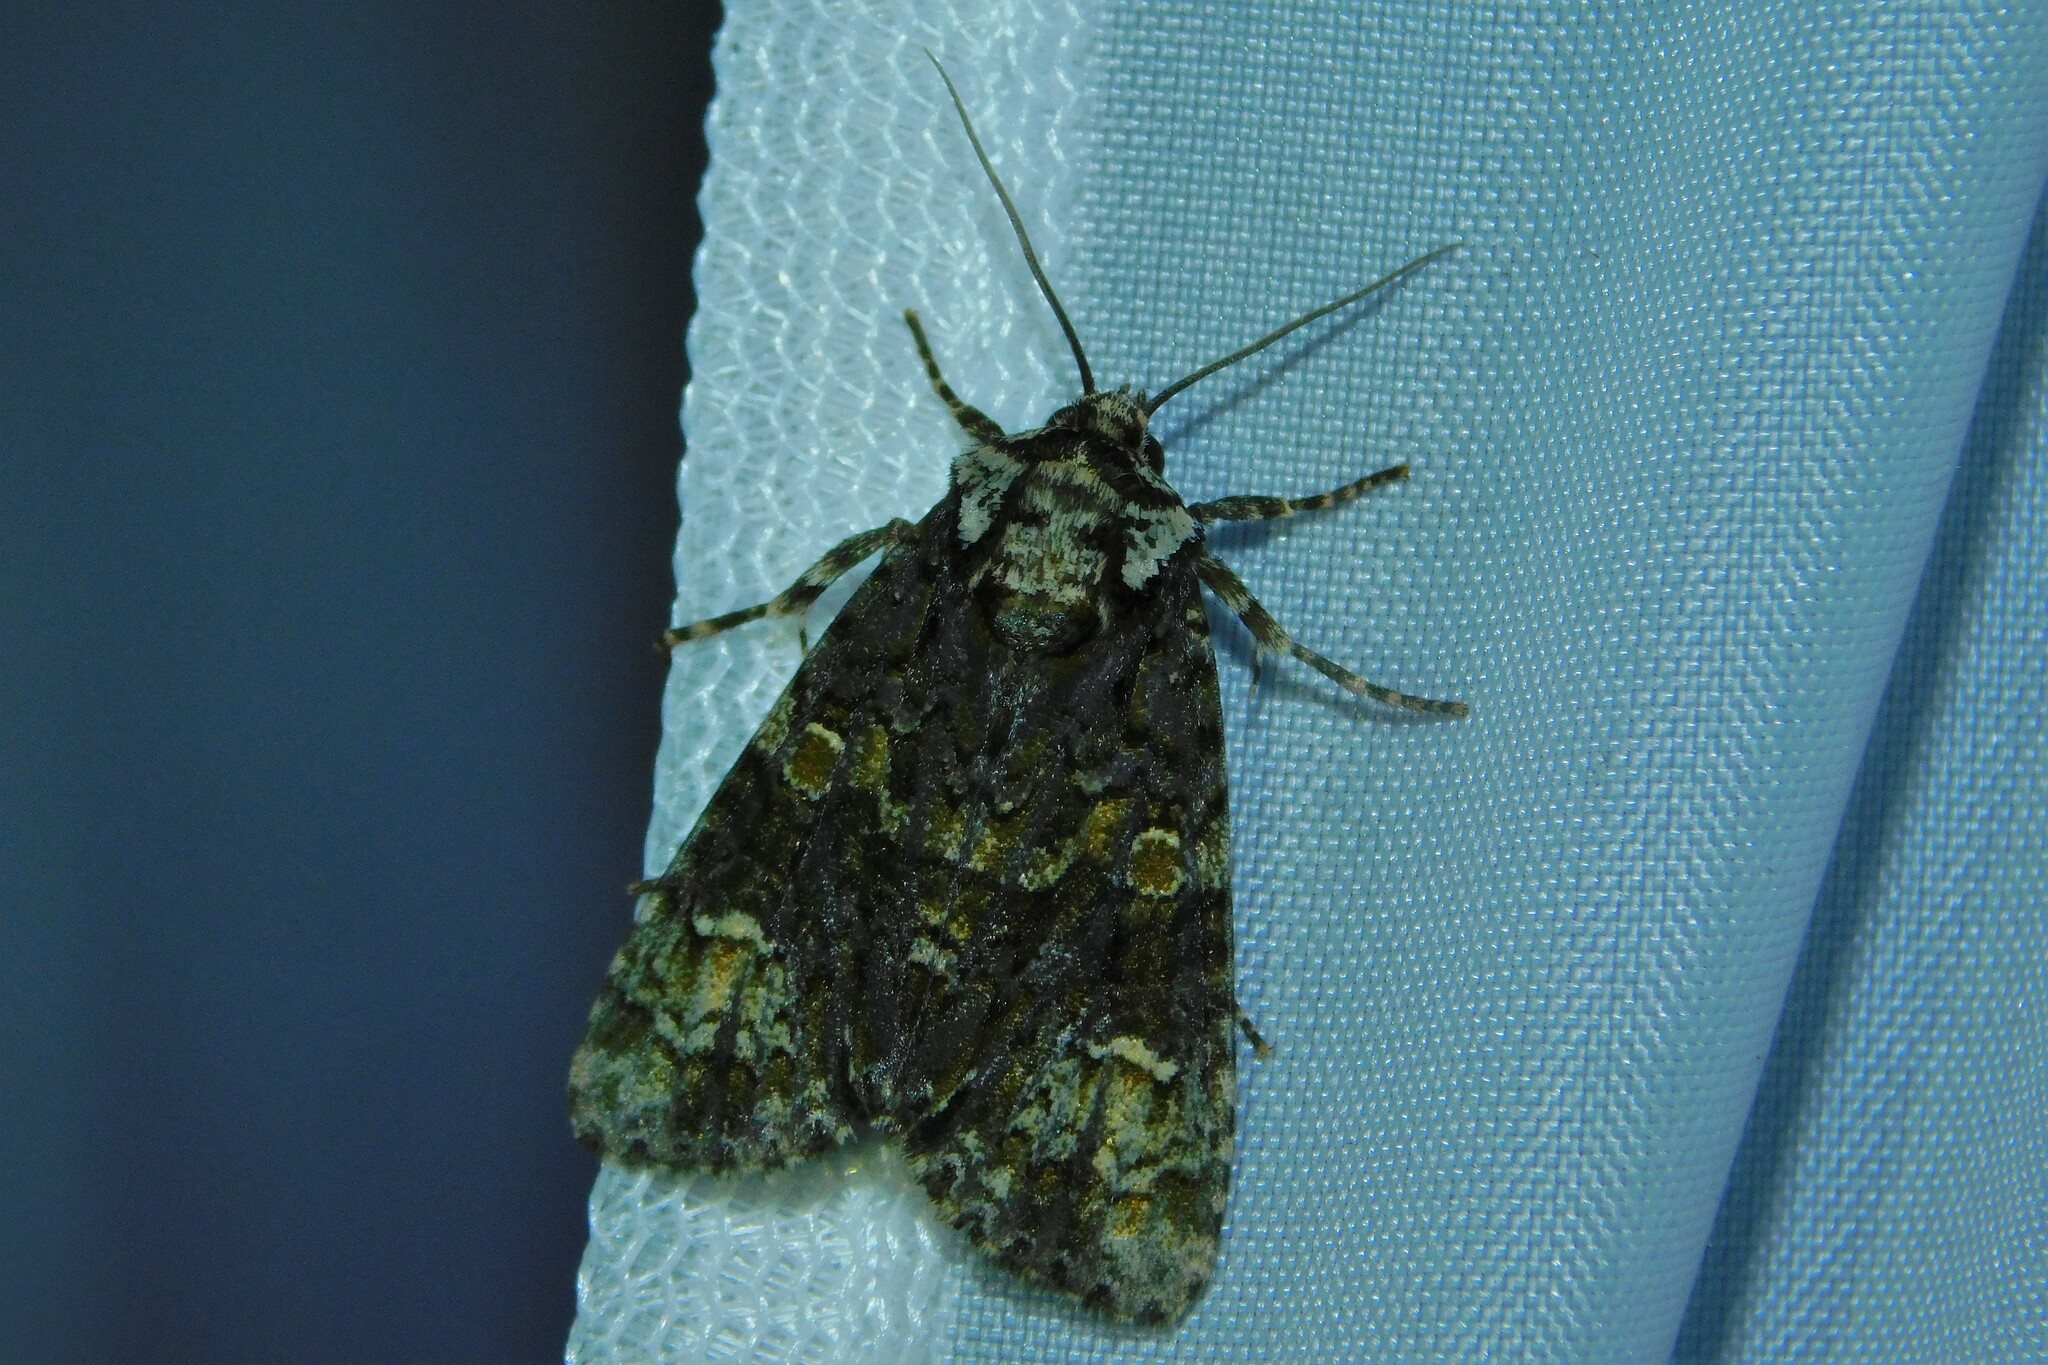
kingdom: Animalia
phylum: Arthropoda
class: Insecta
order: Lepidoptera
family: Noctuidae
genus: Craniophora
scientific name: Craniophora ligustri
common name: Coronet
